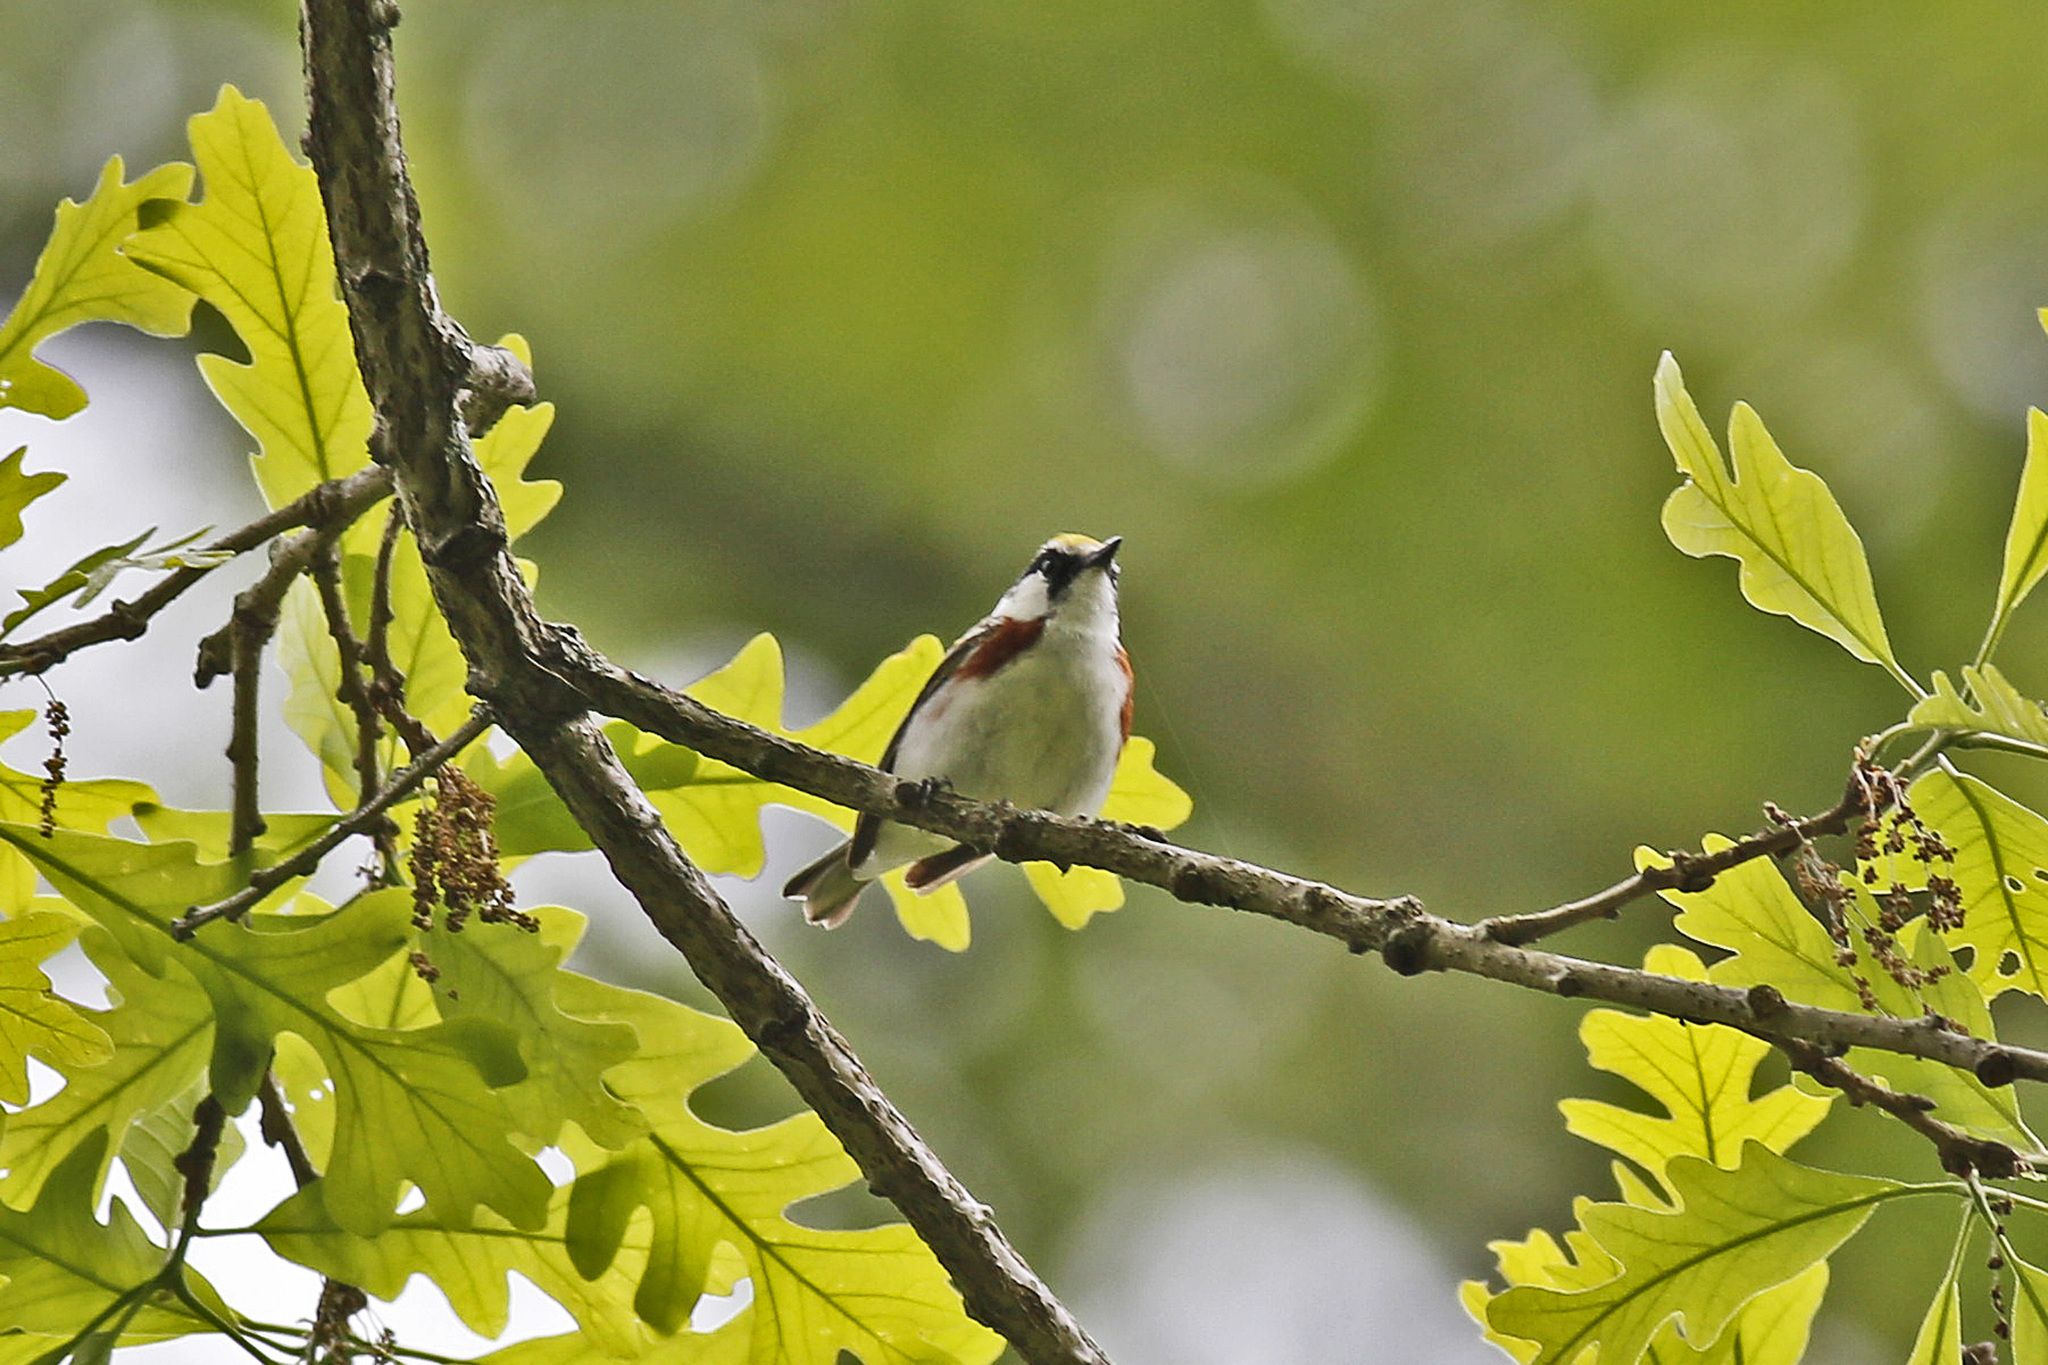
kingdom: Animalia
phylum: Chordata
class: Aves
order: Passeriformes
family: Parulidae
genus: Setophaga
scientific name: Setophaga pensylvanica
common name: Chestnut-sided warbler
